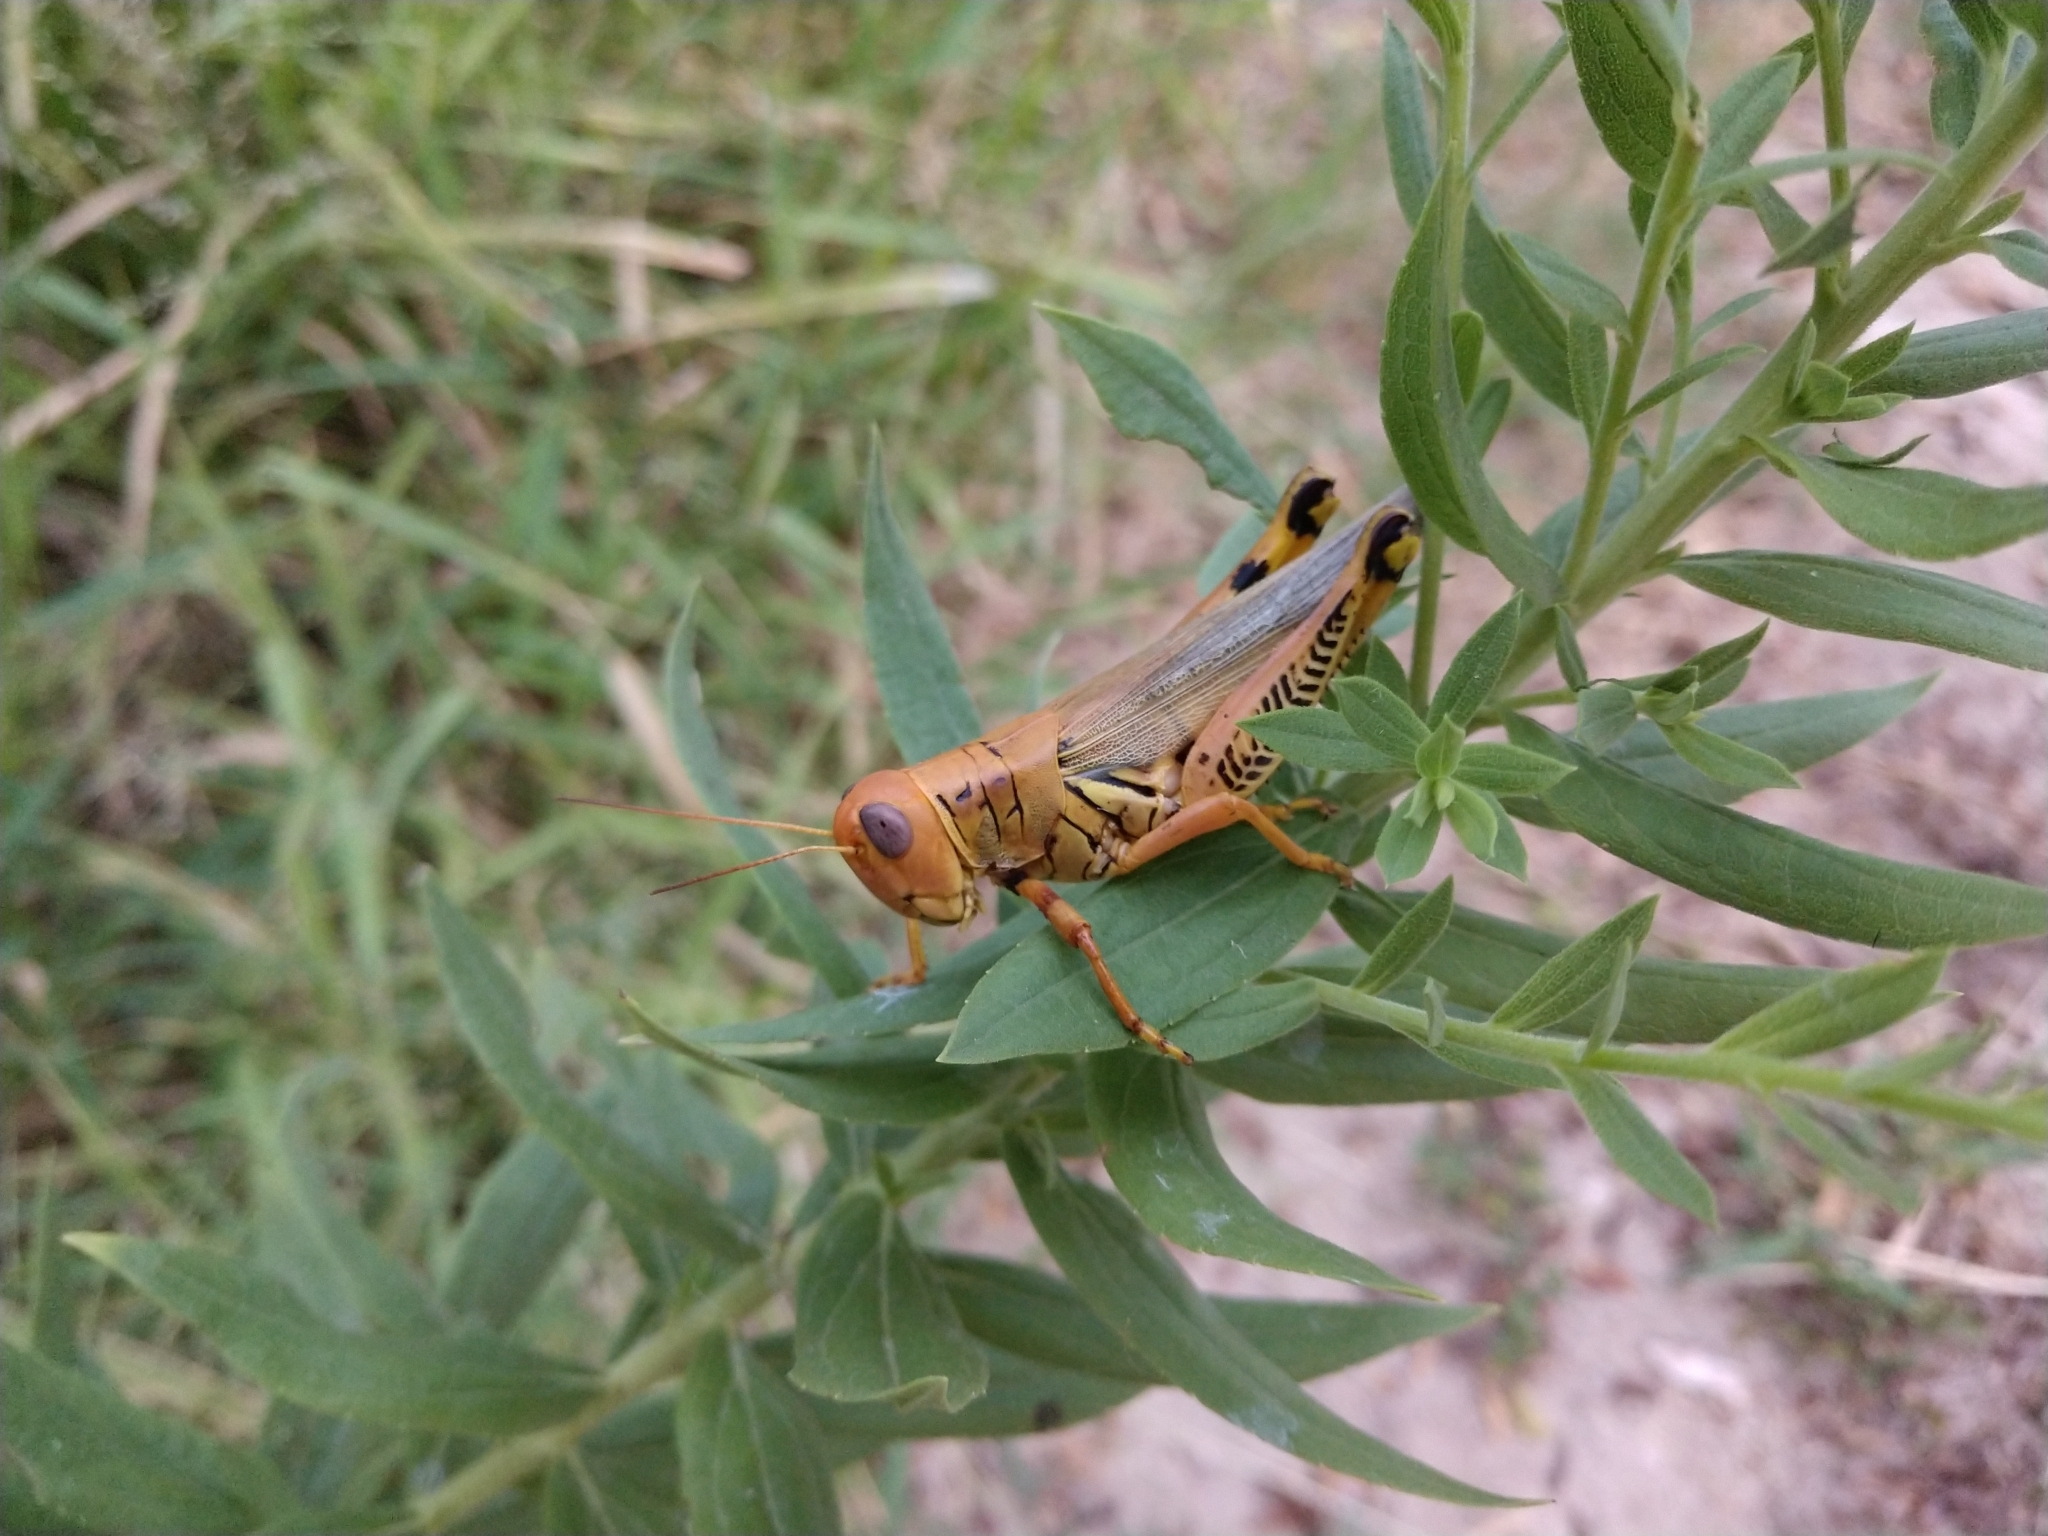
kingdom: Animalia
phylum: Arthropoda
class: Insecta
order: Orthoptera
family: Acrididae
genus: Melanoplus
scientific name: Melanoplus differentialis
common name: Differential grasshopper
